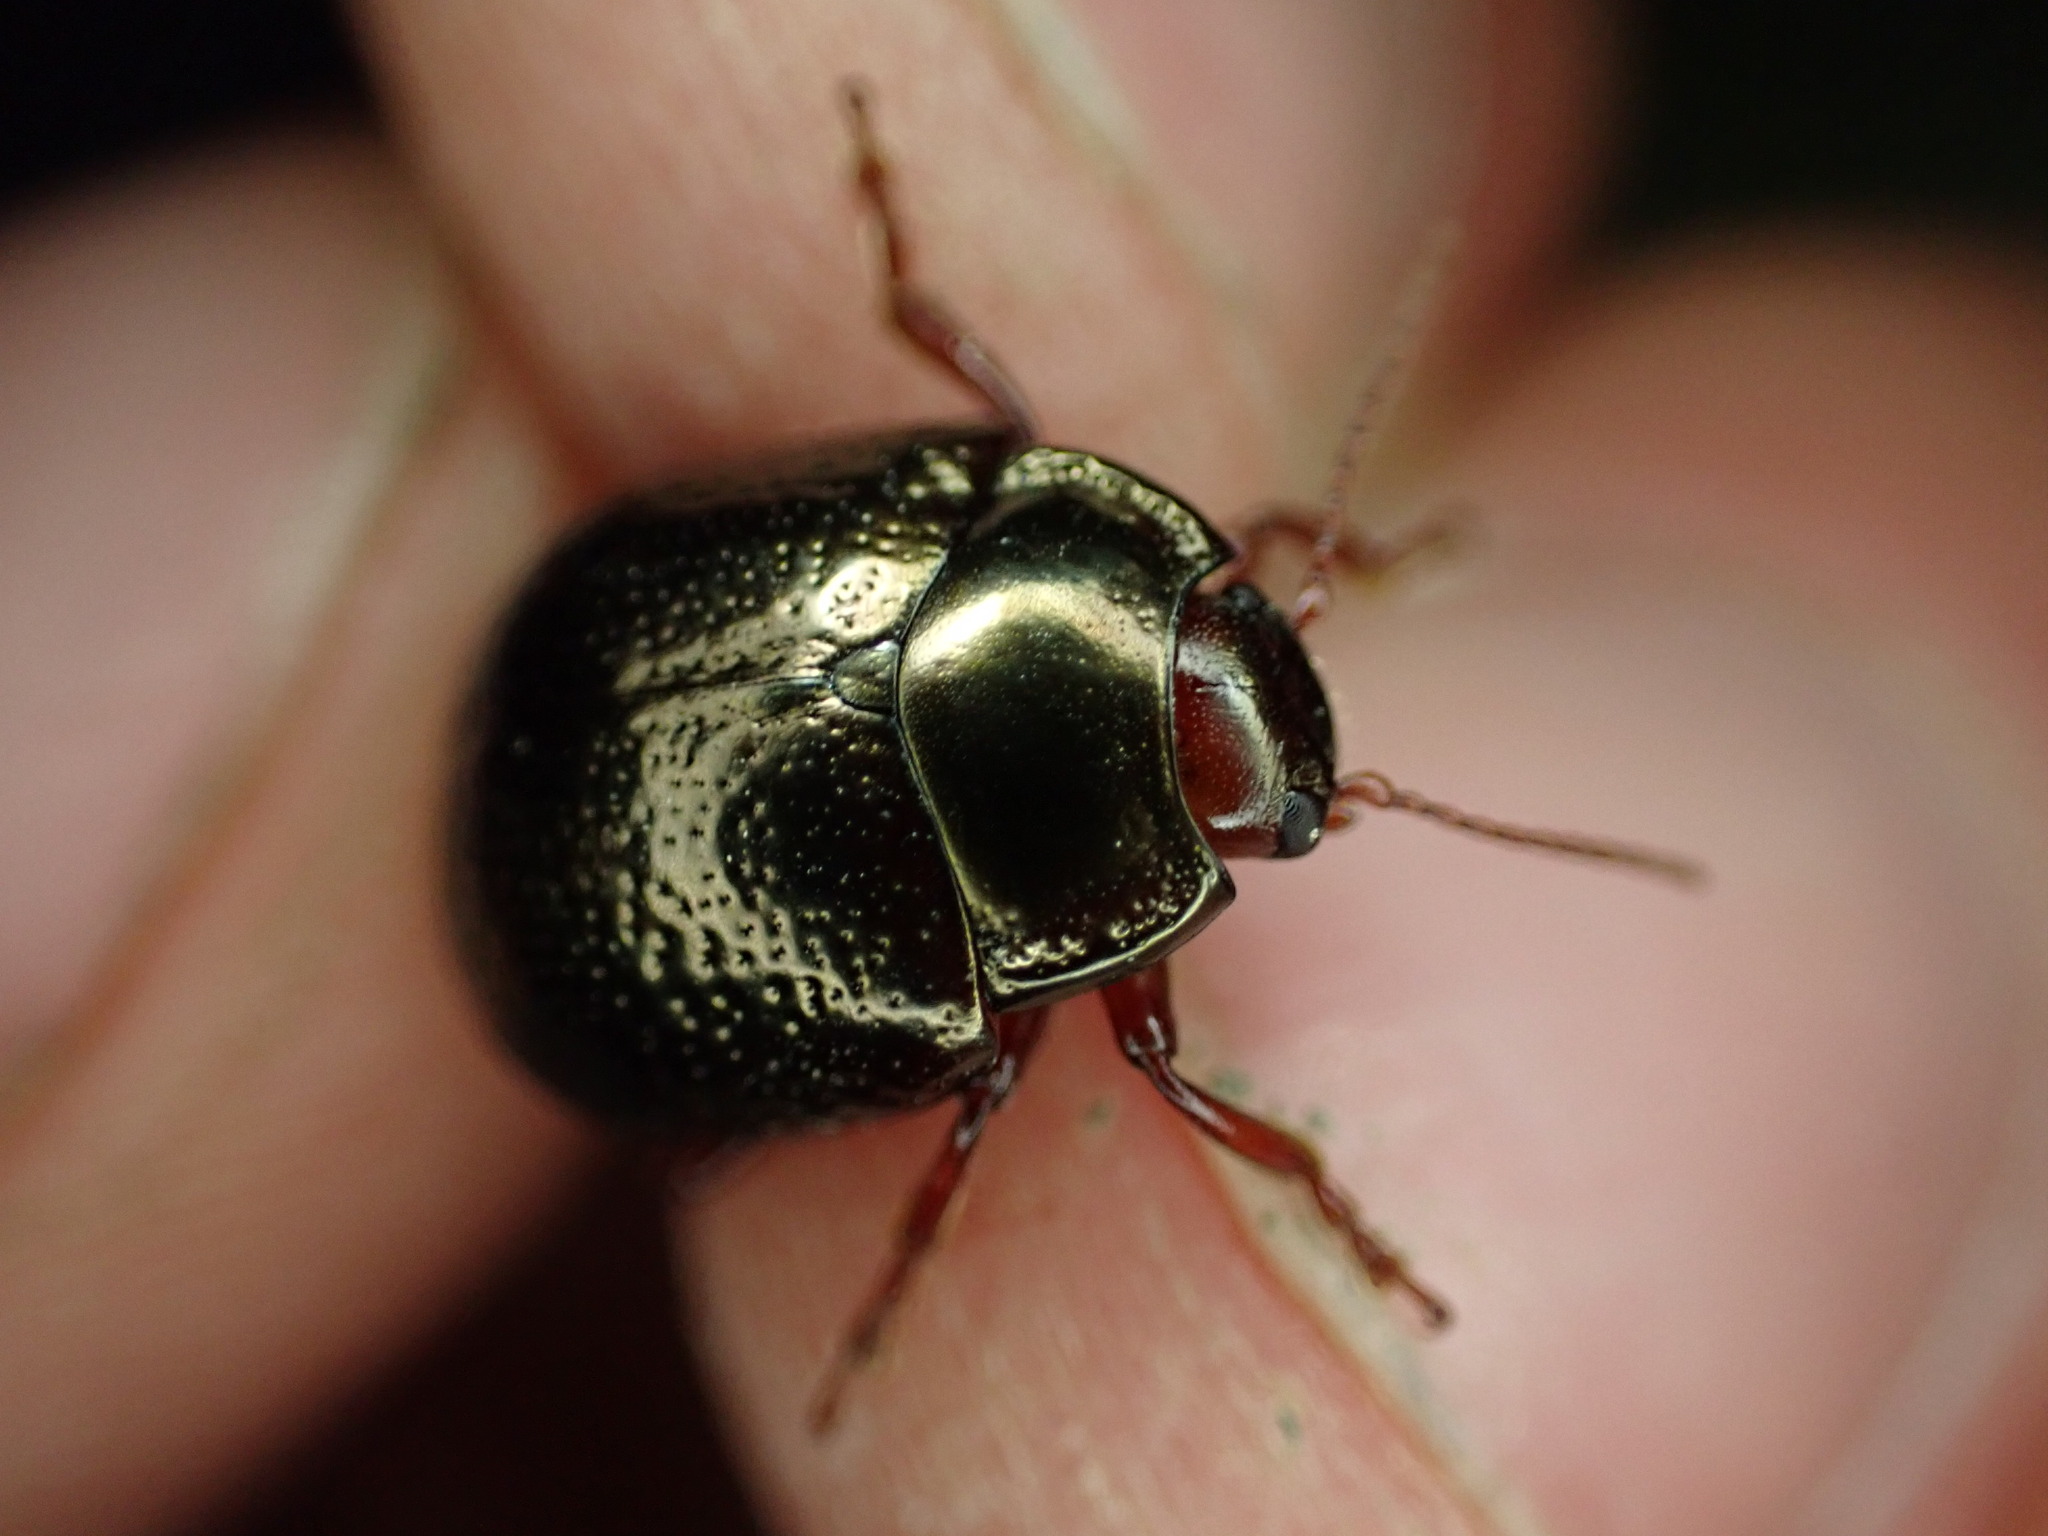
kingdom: Animalia
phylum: Arthropoda
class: Insecta
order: Coleoptera
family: Chrysomelidae
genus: Chrysolina
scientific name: Chrysolina bankii
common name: Leaf beetle
